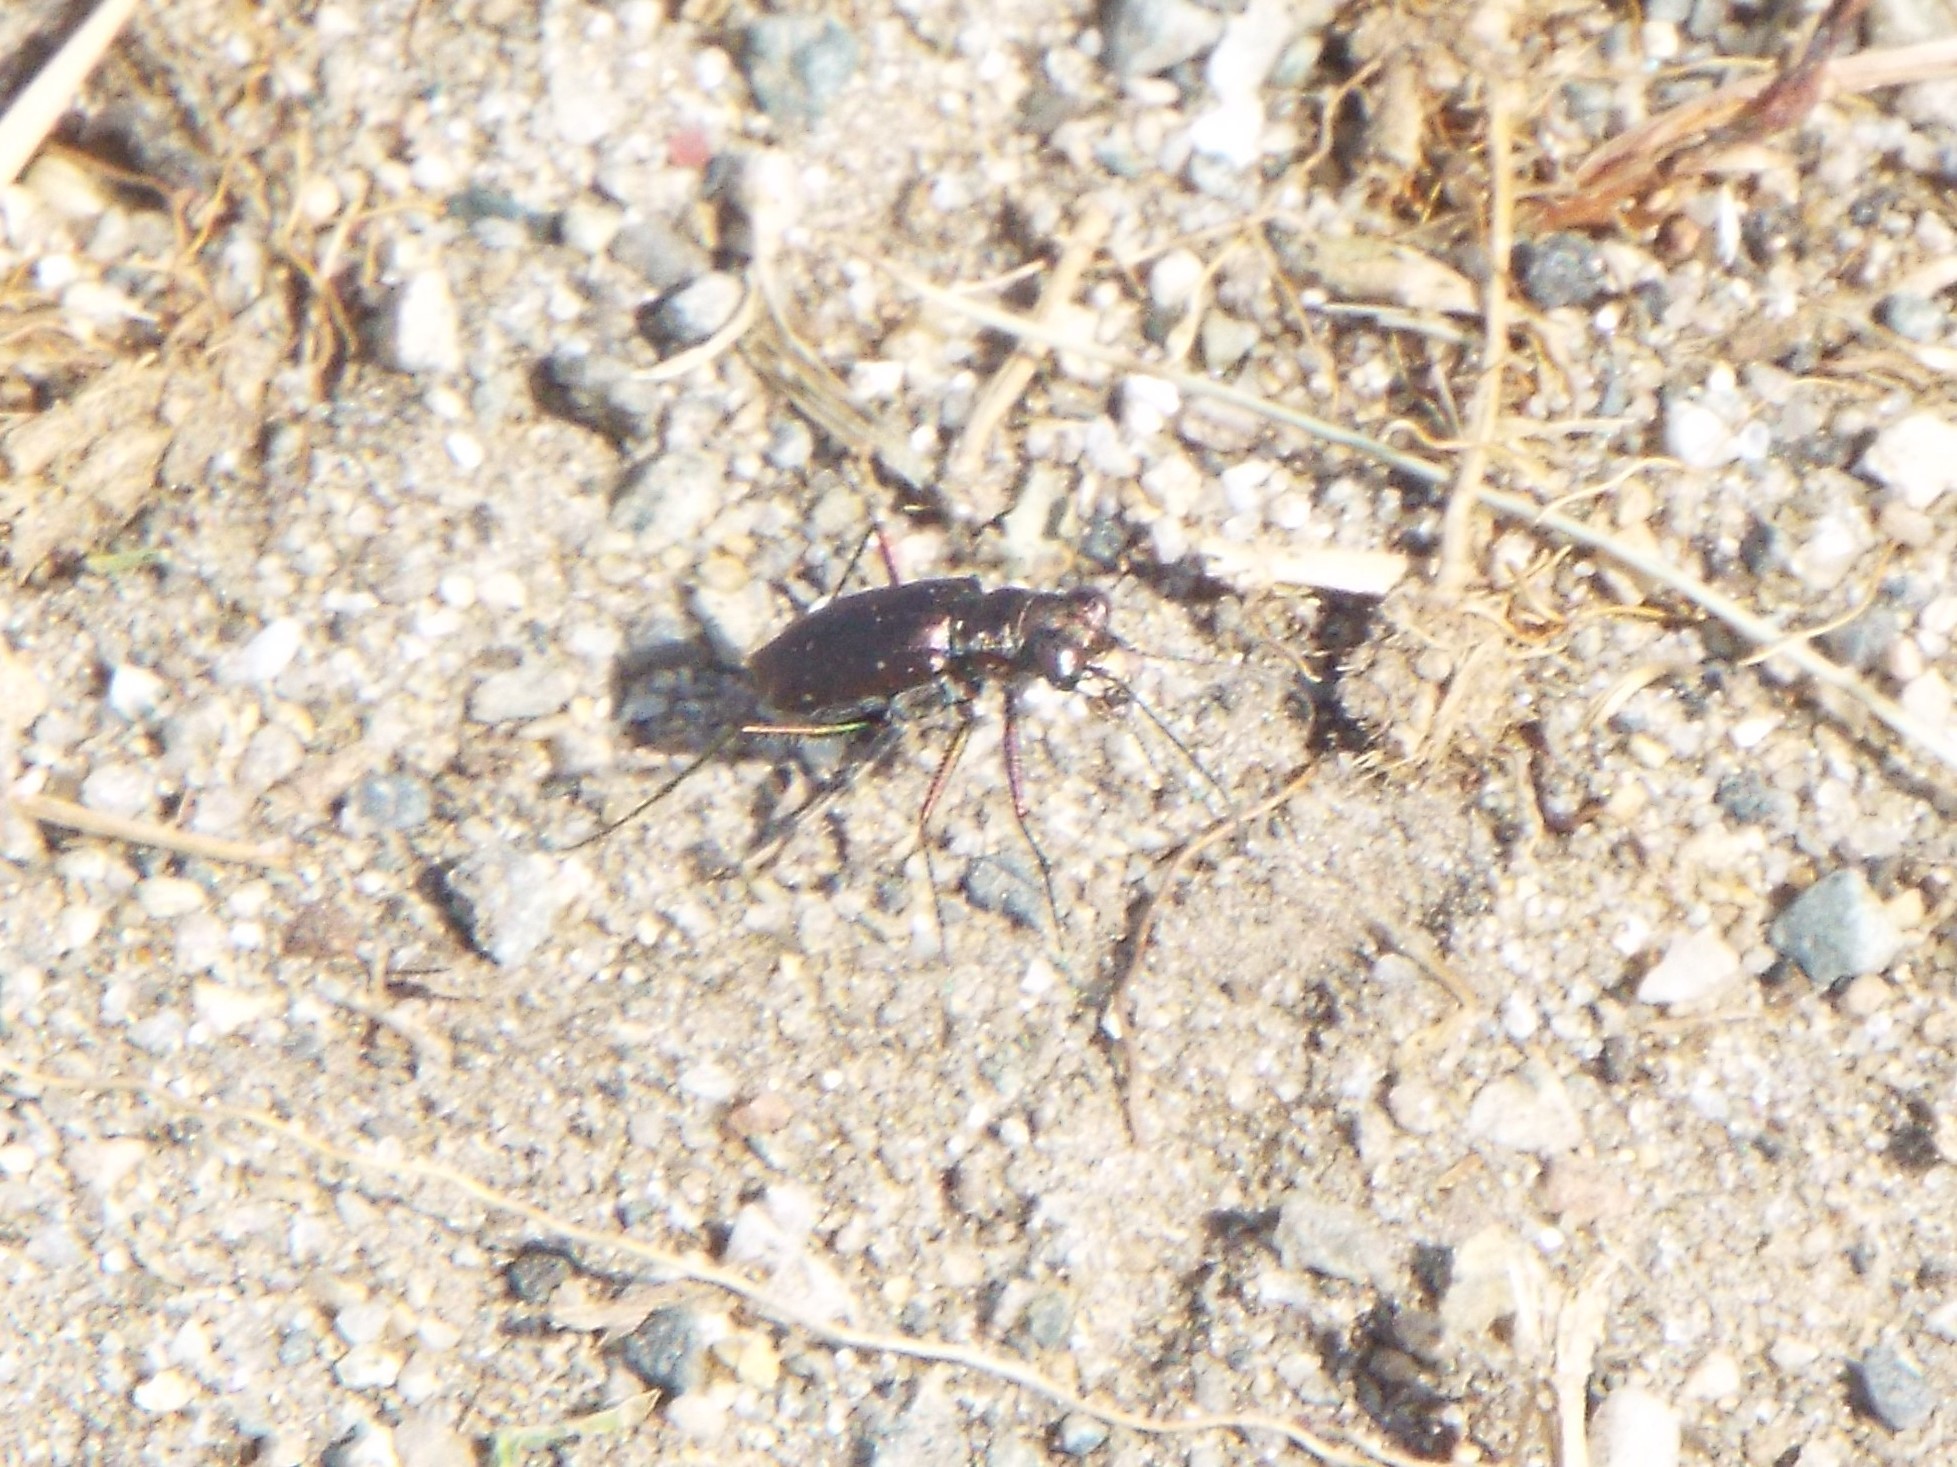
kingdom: Animalia
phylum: Arthropoda
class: Insecta
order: Coleoptera
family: Carabidae
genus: Cicindela
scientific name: Cicindela punctulata
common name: Punctured tiger beetle
